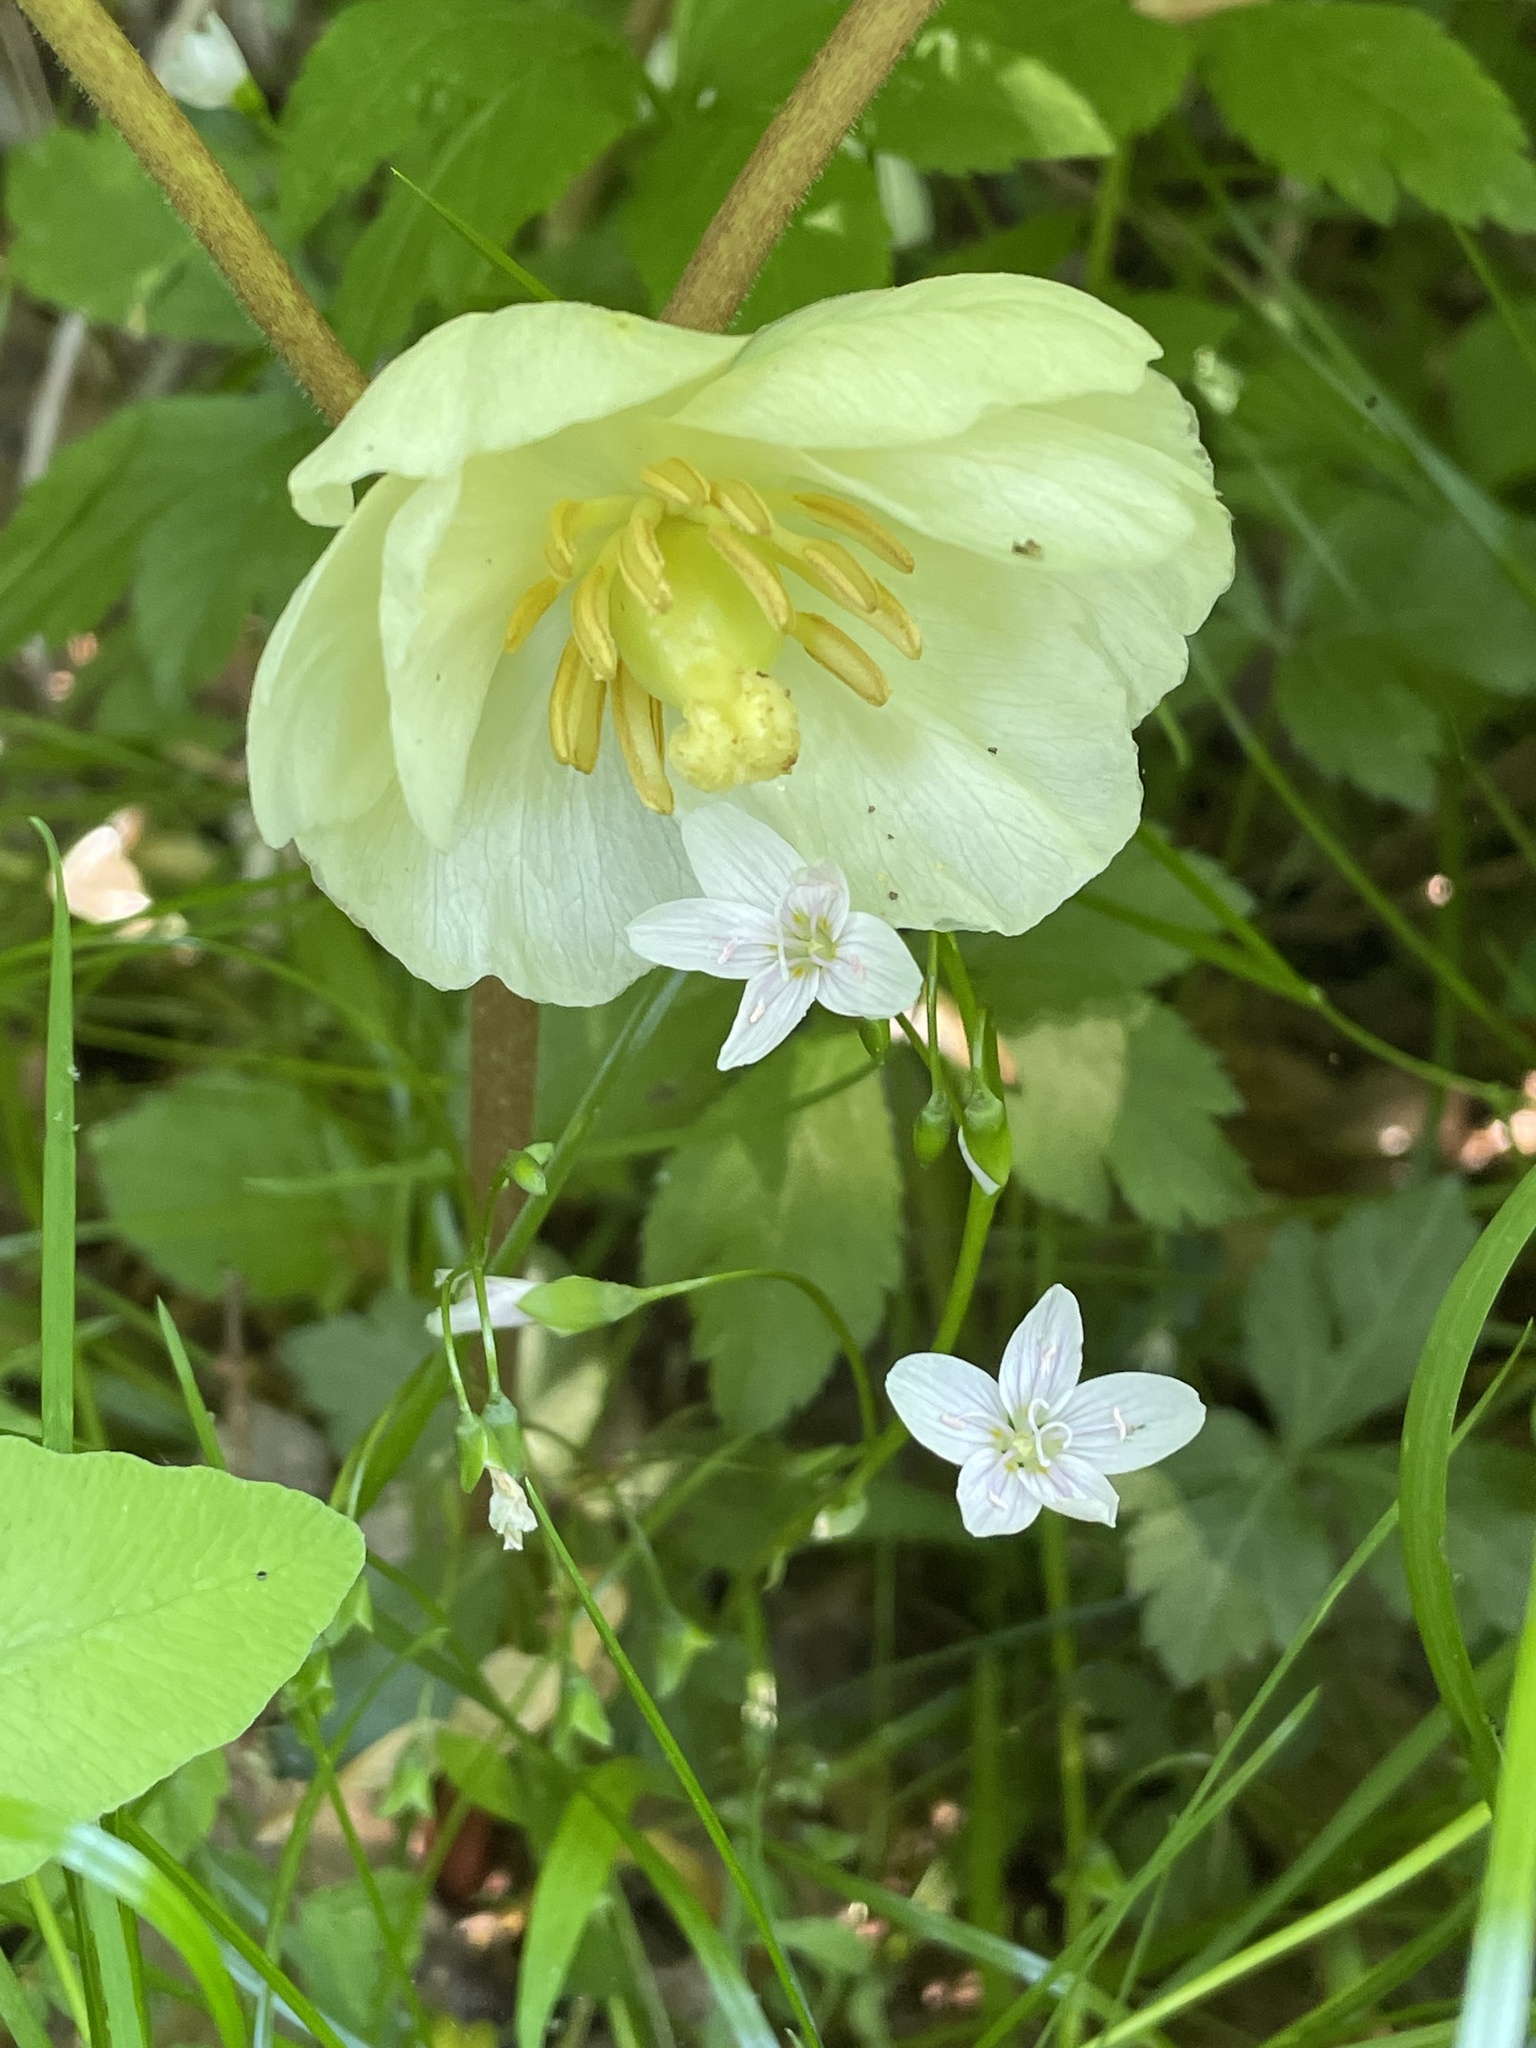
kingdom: Plantae
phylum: Tracheophyta
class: Magnoliopsida
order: Ranunculales
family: Berberidaceae
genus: Podophyllum
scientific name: Podophyllum peltatum
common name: Wild mandrake
